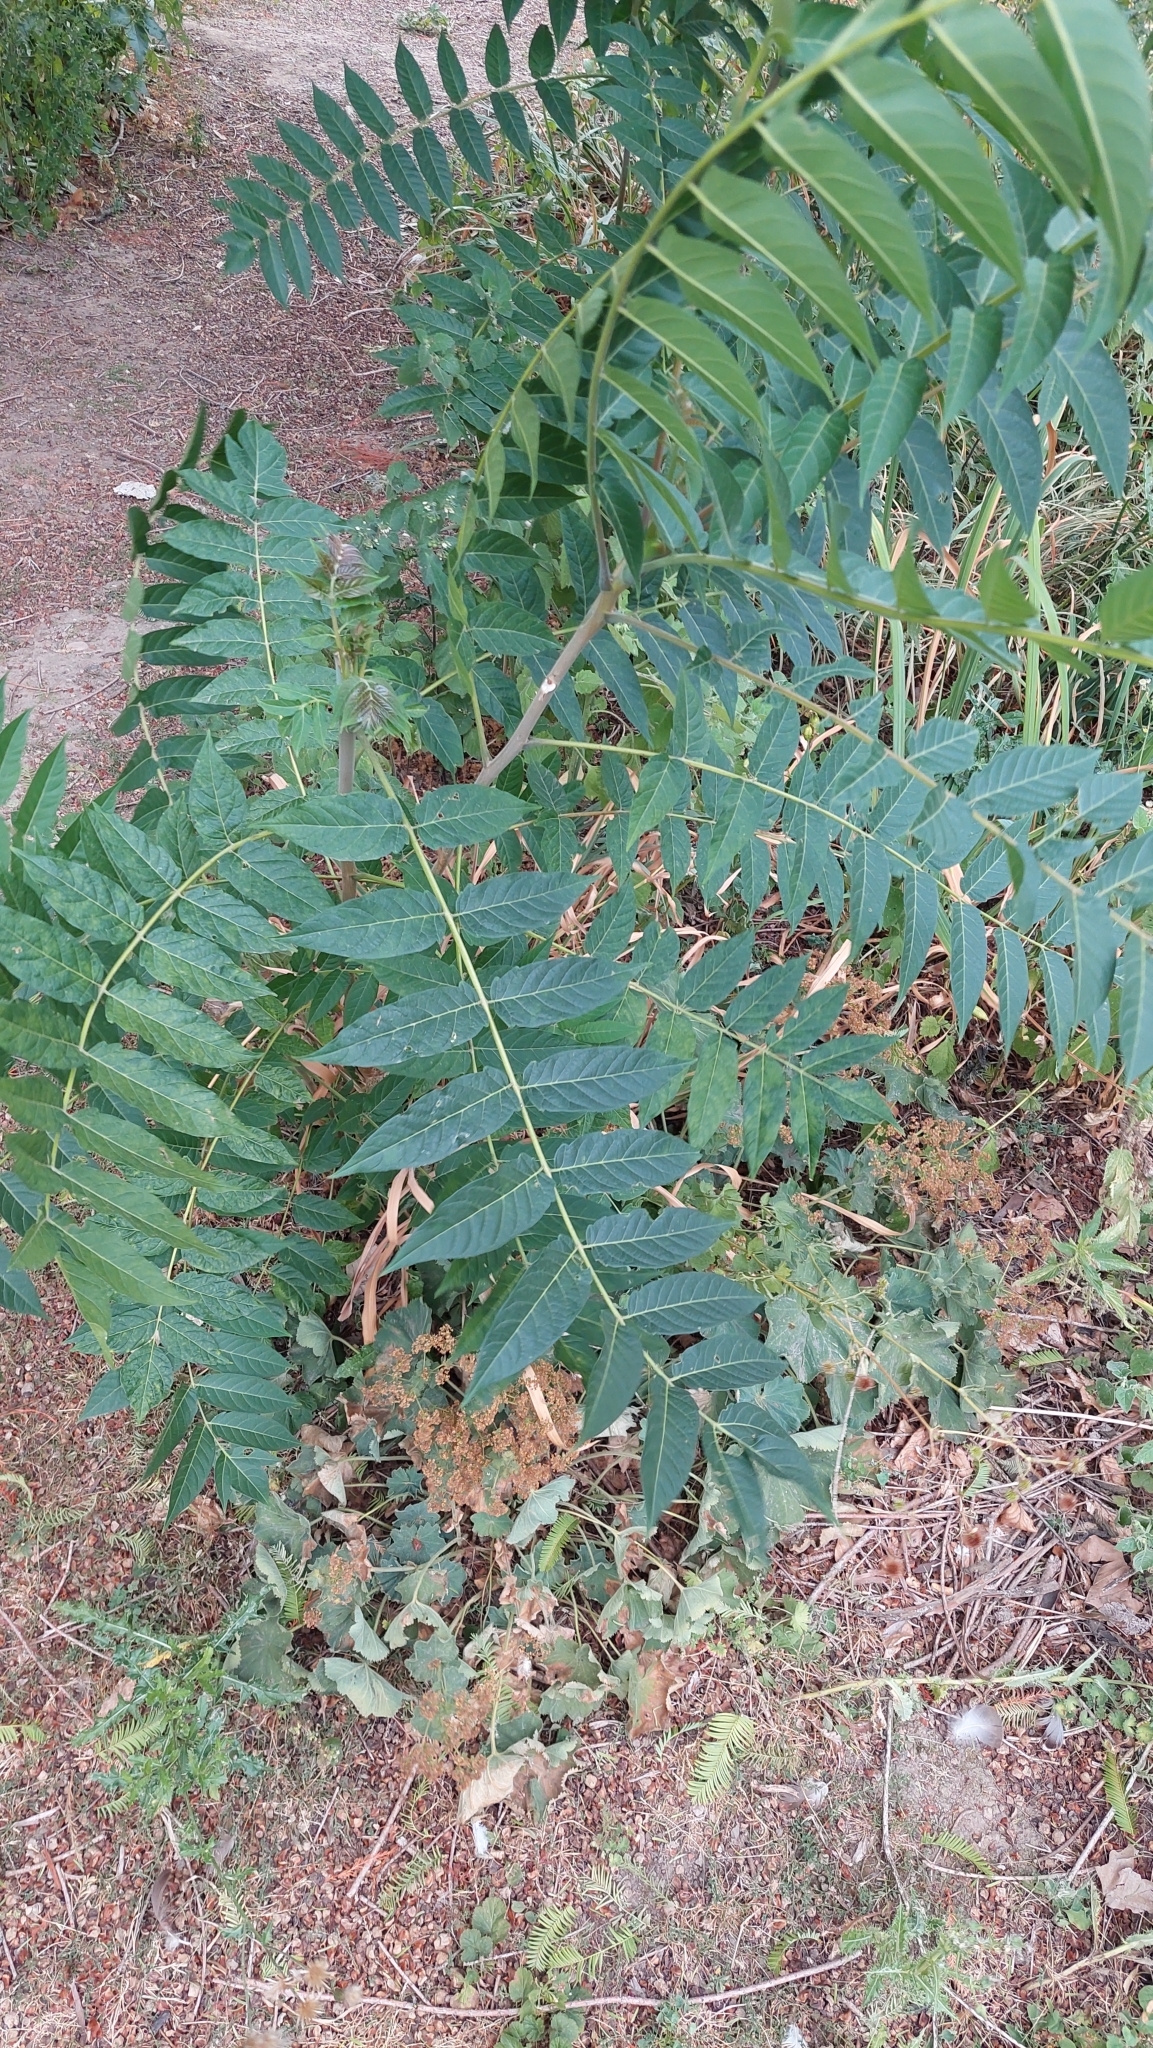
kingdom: Plantae
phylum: Tracheophyta
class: Magnoliopsida
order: Sapindales
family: Simaroubaceae
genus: Ailanthus
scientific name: Ailanthus altissima
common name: Tree-of-heaven
